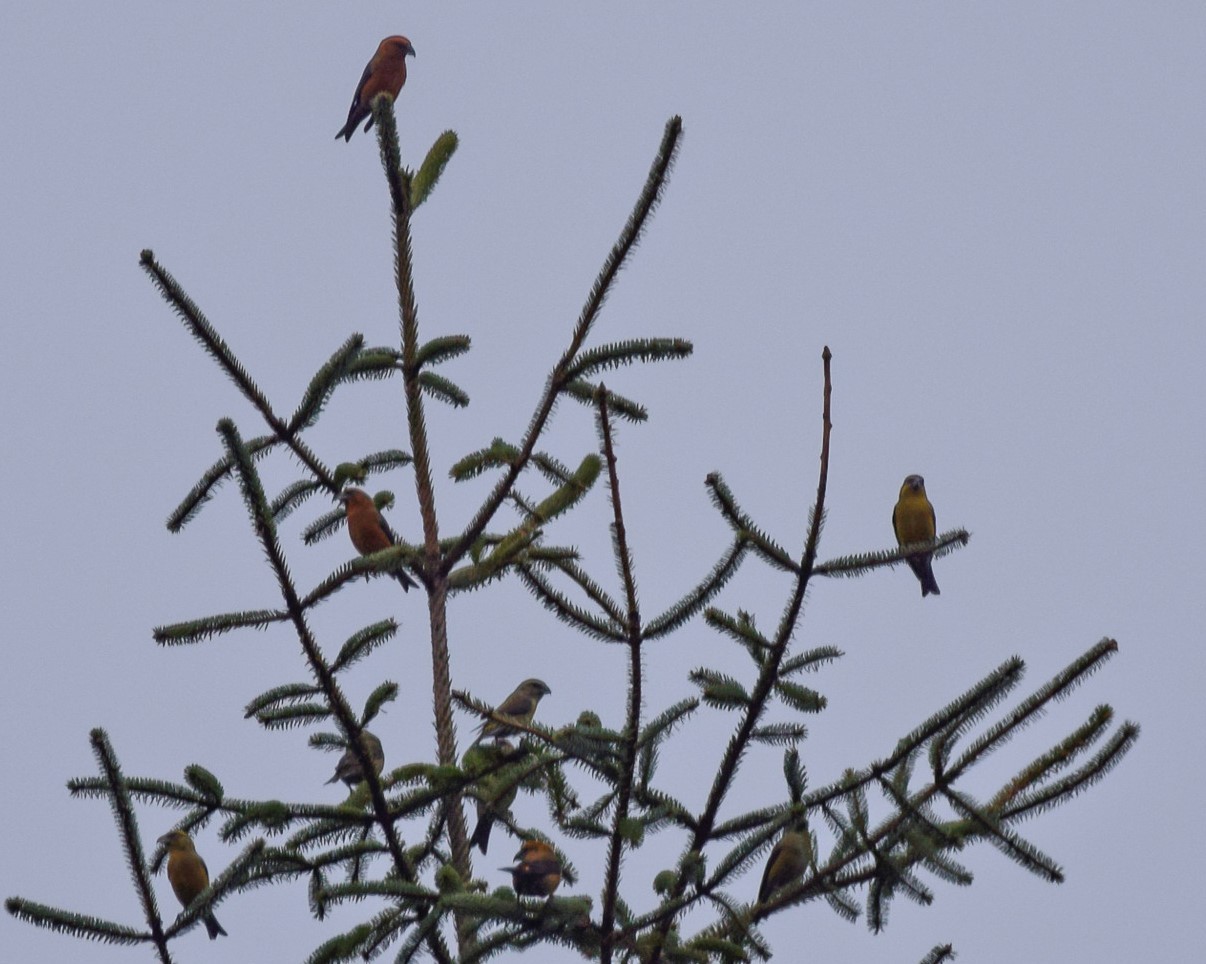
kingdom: Animalia
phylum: Chordata
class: Aves
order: Passeriformes
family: Fringillidae
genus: Loxia
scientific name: Loxia curvirostra
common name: Red crossbill
